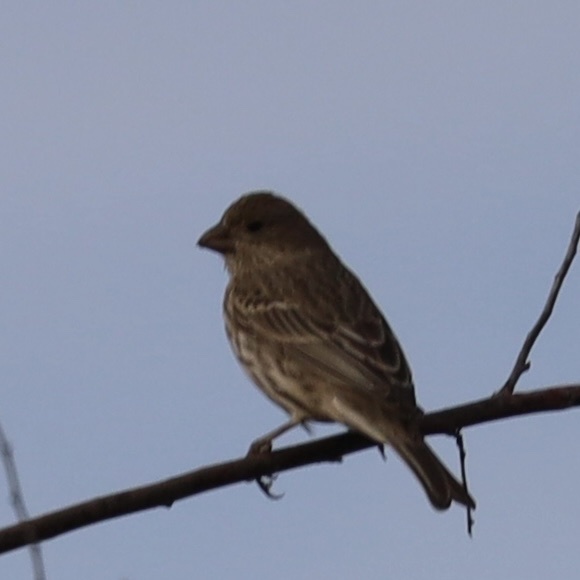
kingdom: Animalia
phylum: Chordata
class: Aves
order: Passeriformes
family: Fringillidae
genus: Haemorhous
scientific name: Haemorhous mexicanus
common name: House finch
